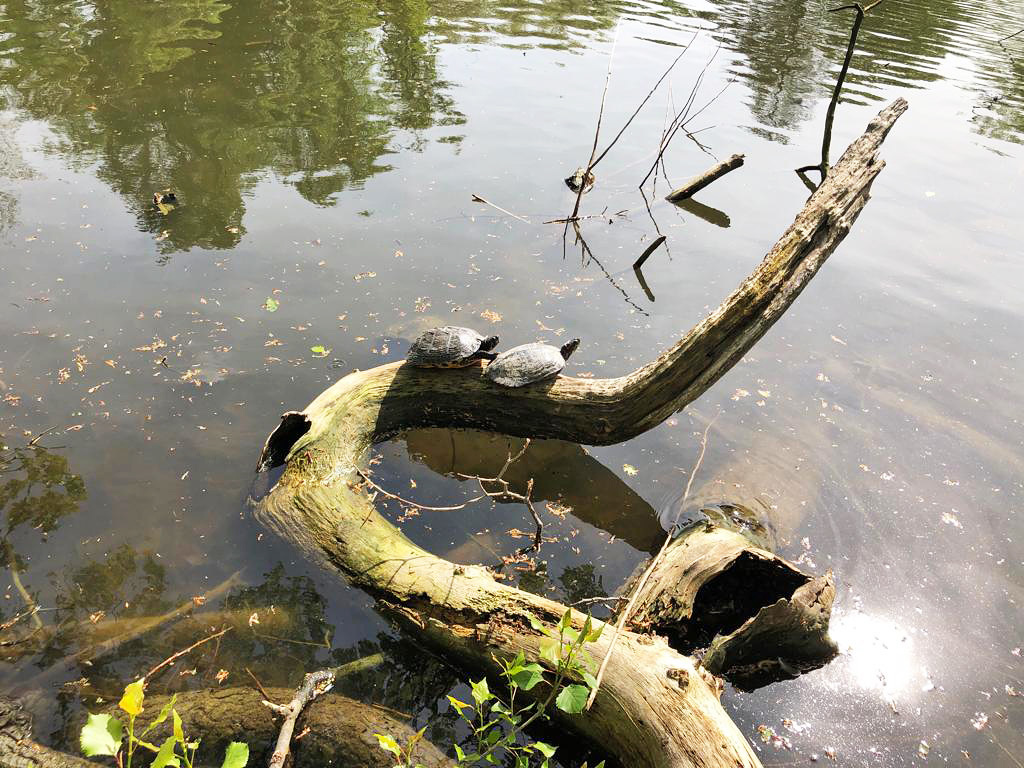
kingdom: Animalia
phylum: Chordata
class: Testudines
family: Emydidae
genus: Trachemys
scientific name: Trachemys scripta
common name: Slider
